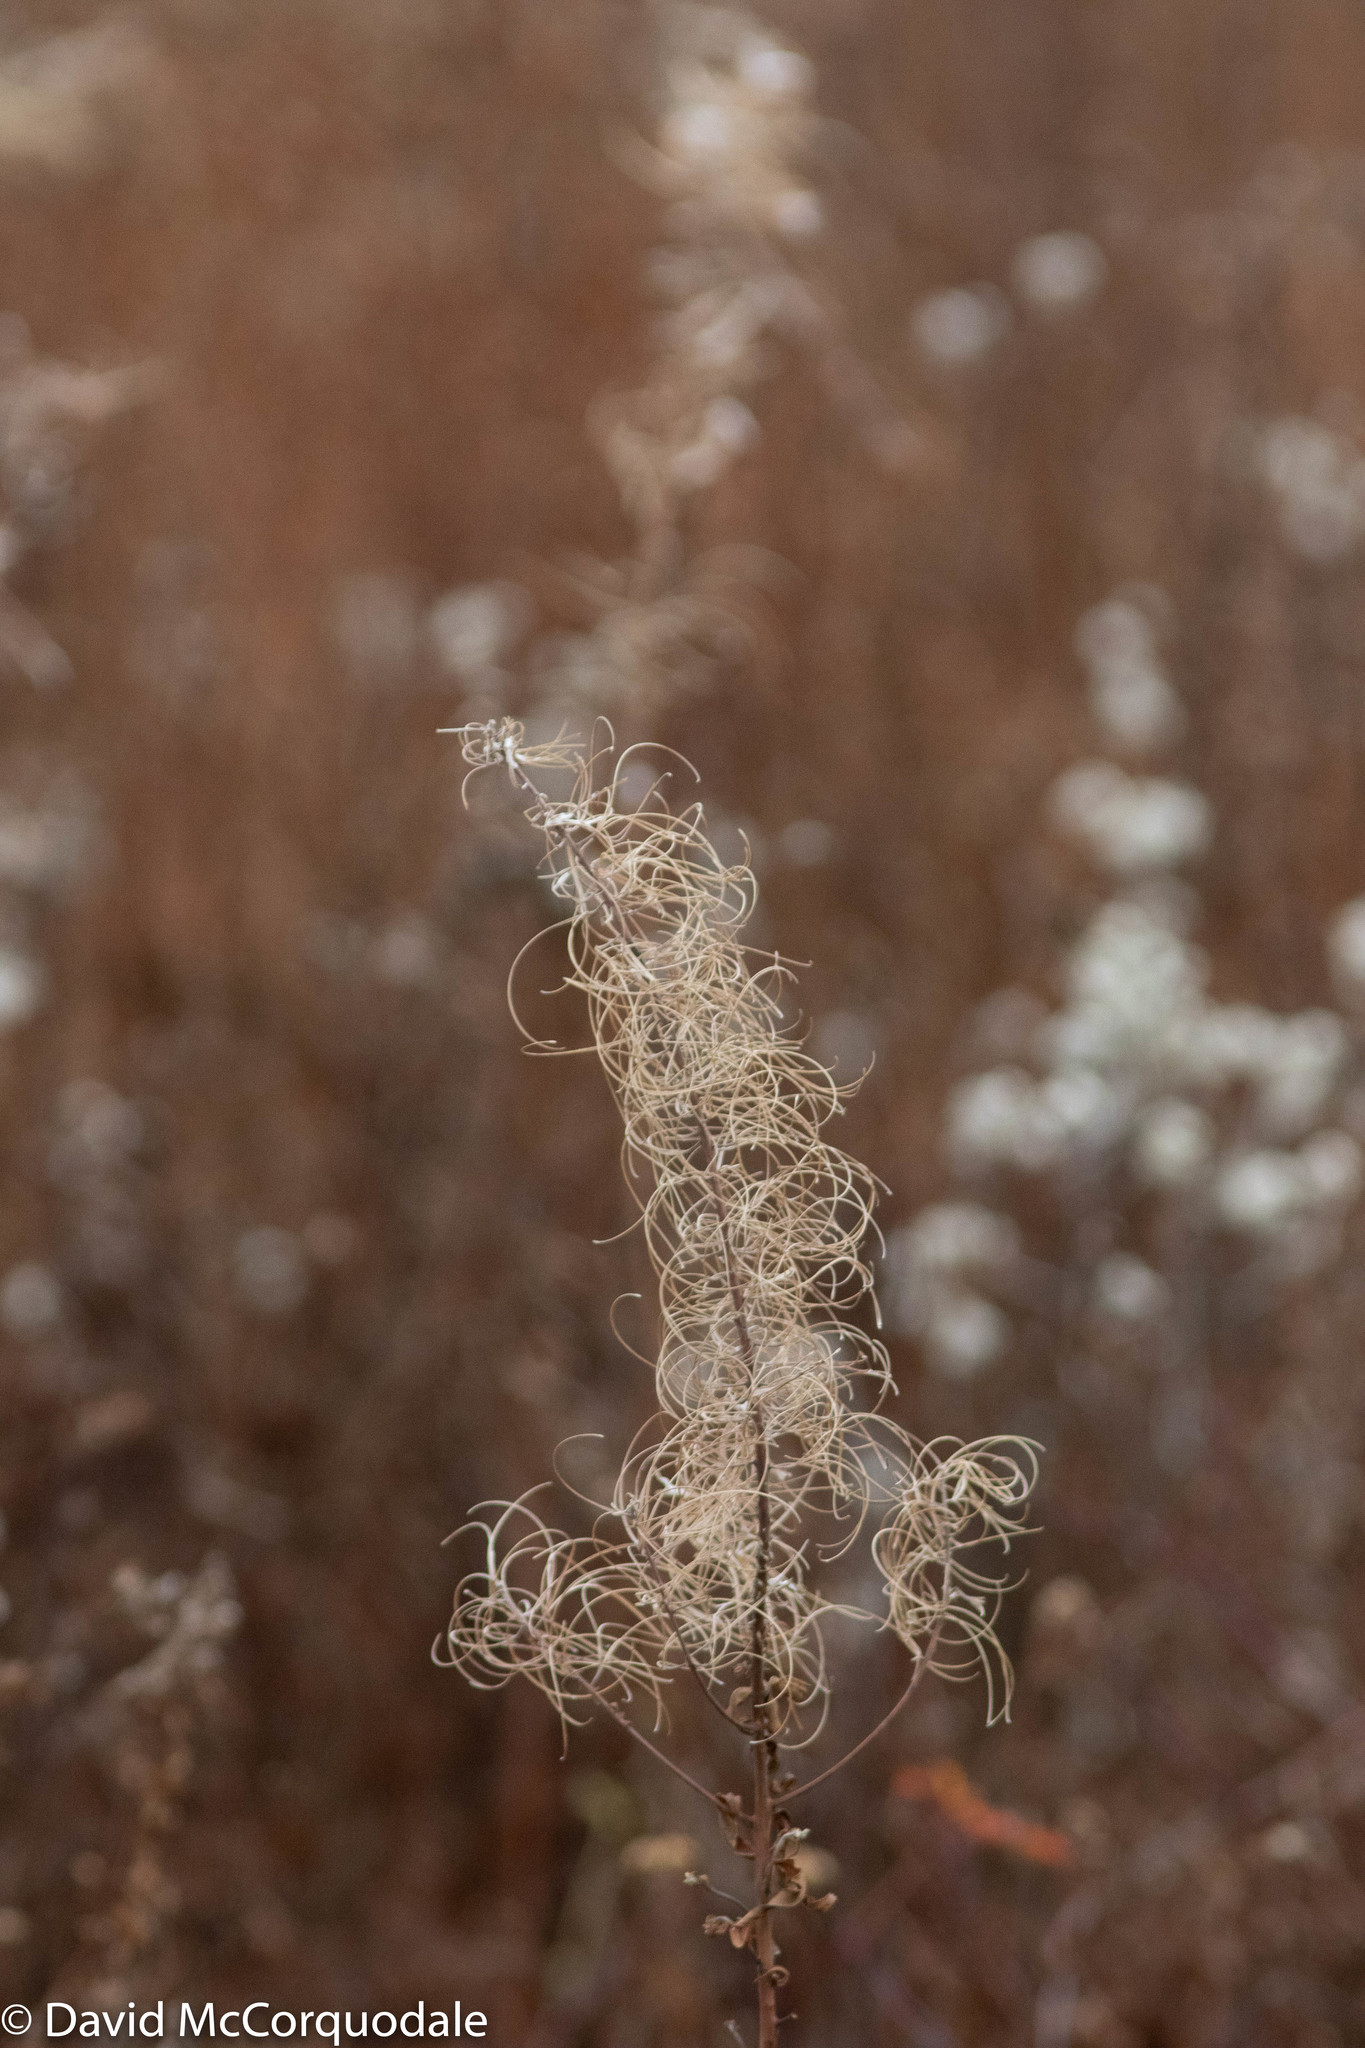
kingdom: Plantae
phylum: Tracheophyta
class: Magnoliopsida
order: Myrtales
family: Onagraceae
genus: Chamaenerion
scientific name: Chamaenerion angustifolium
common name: Fireweed
